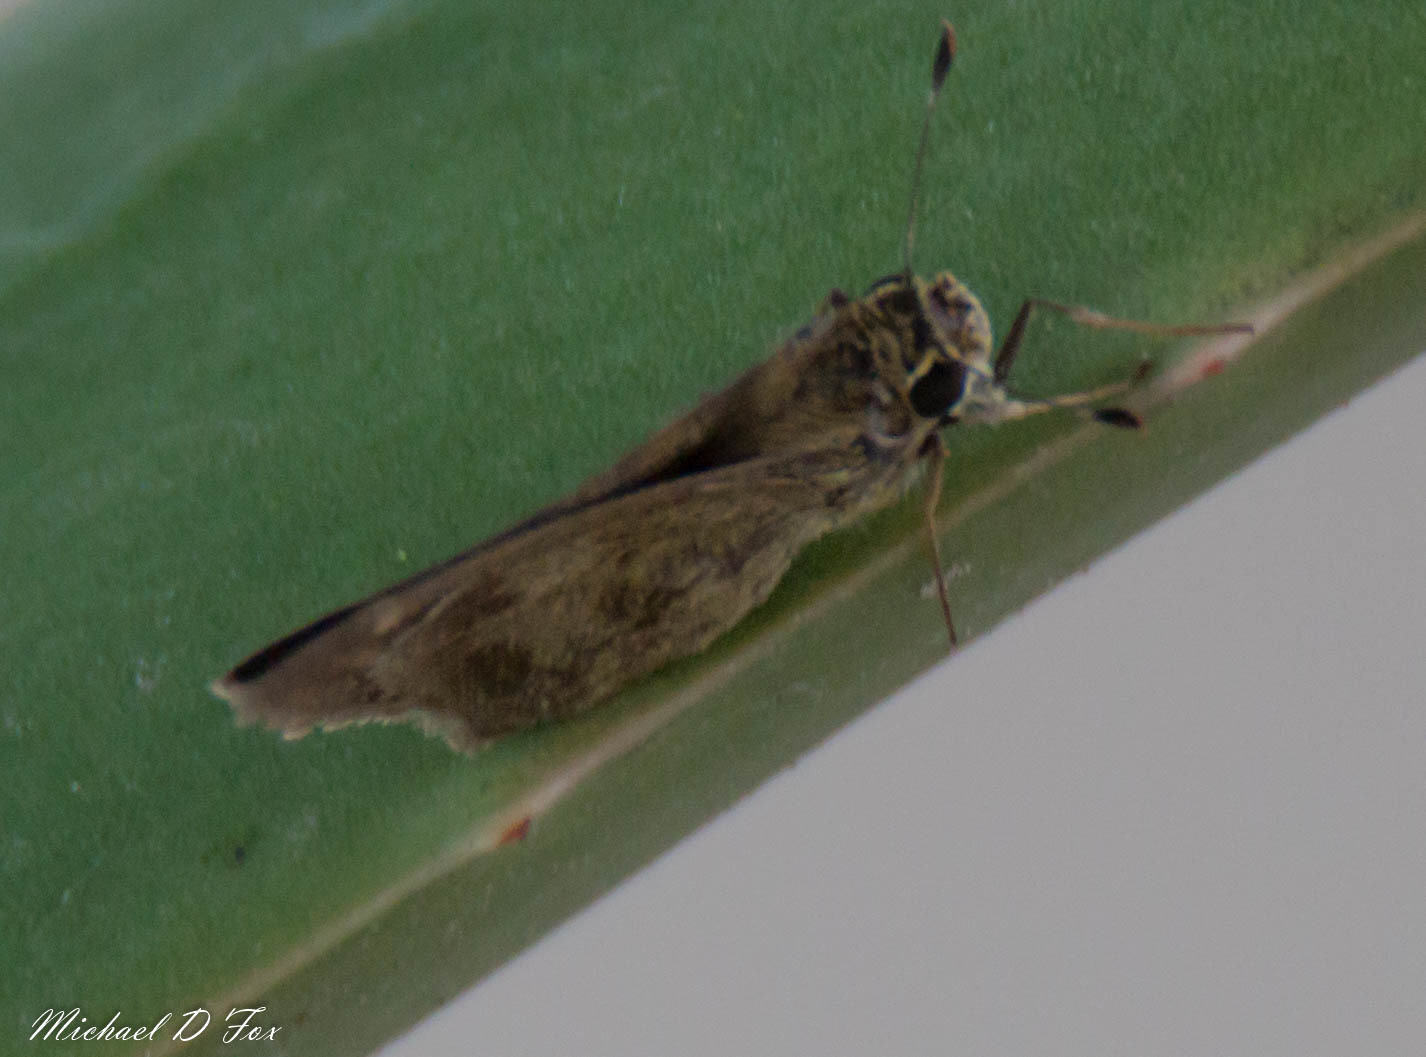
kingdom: Animalia
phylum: Arthropoda
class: Insecta
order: Lepidoptera
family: Hesperiidae
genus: Polites
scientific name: Polites vibex
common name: Whirlabout
